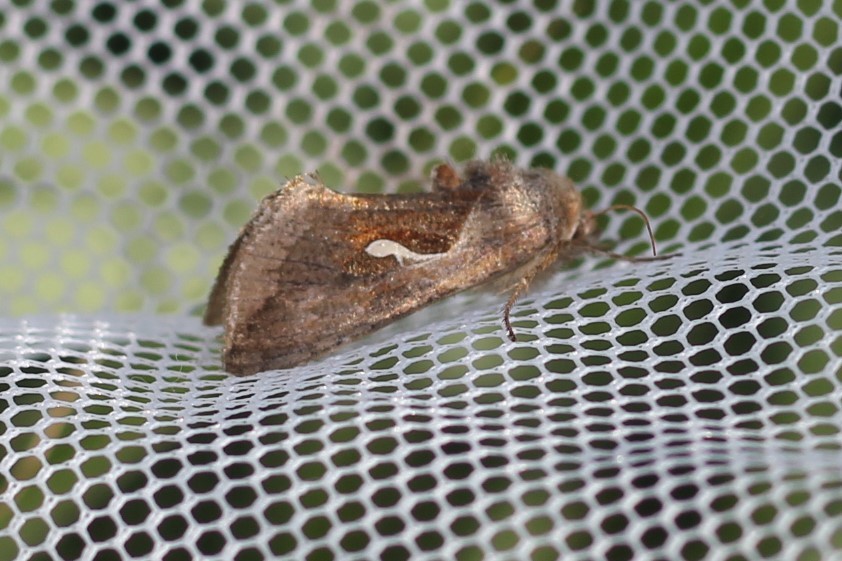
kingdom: Animalia
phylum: Arthropoda
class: Insecta
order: Lepidoptera
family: Noctuidae
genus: Anagrapha
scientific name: Anagrapha falcifera
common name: Celery looper
